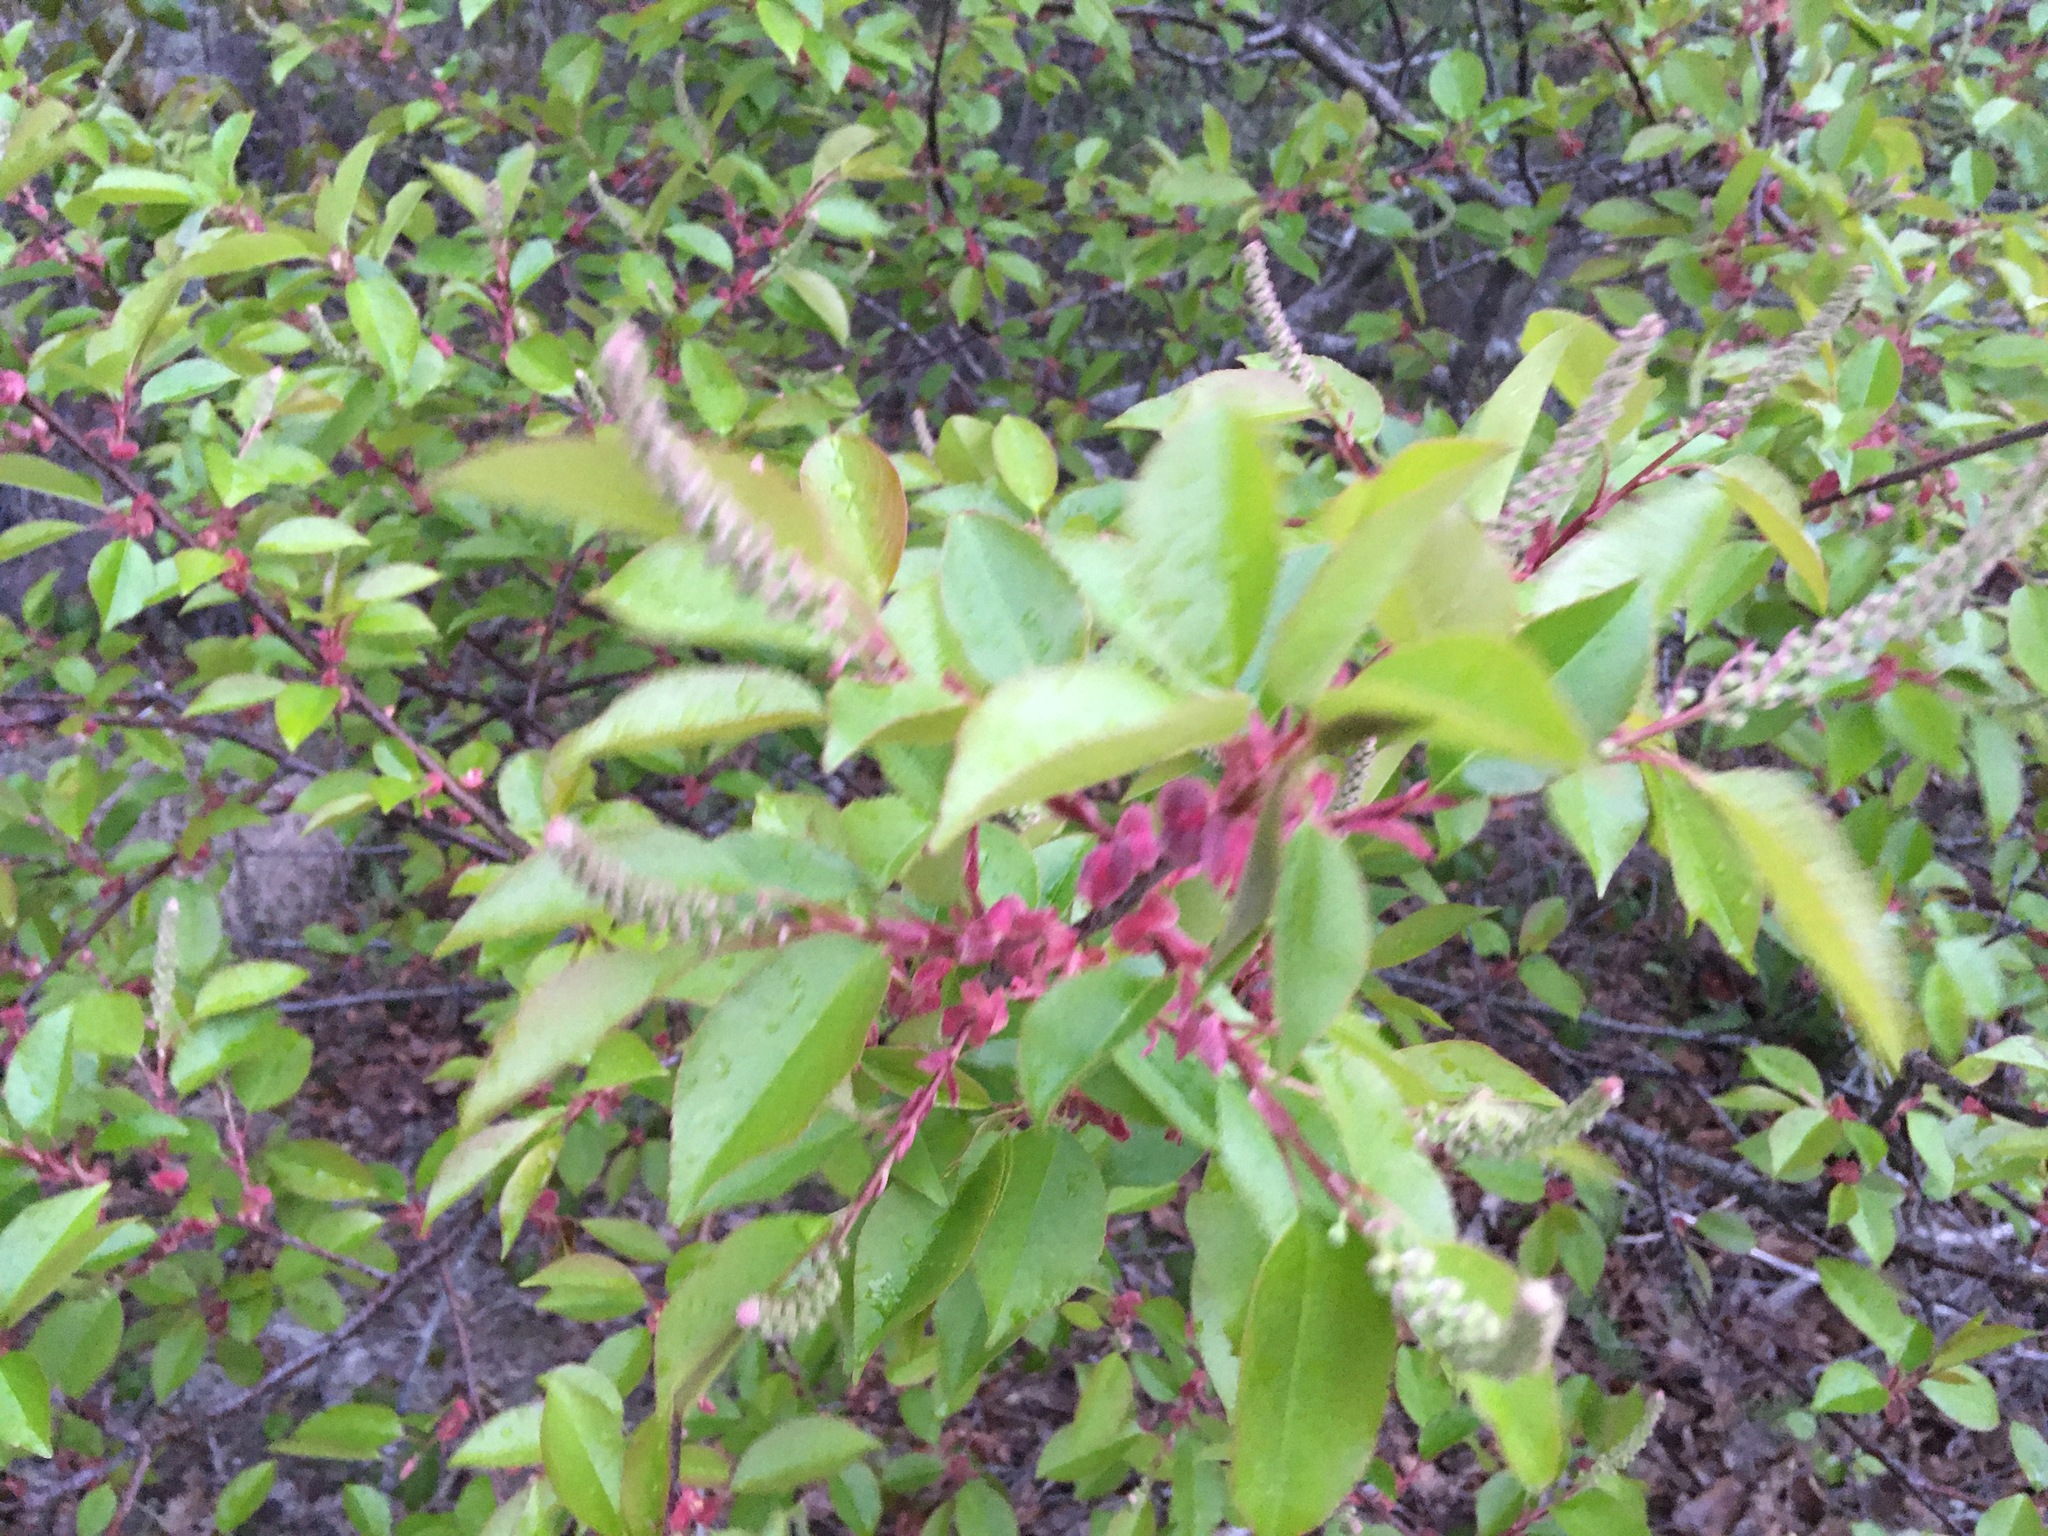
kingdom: Plantae
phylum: Tracheophyta
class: Magnoliopsida
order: Rosales
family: Rosaceae
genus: Prunus
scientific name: Prunus serotina
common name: Black cherry
